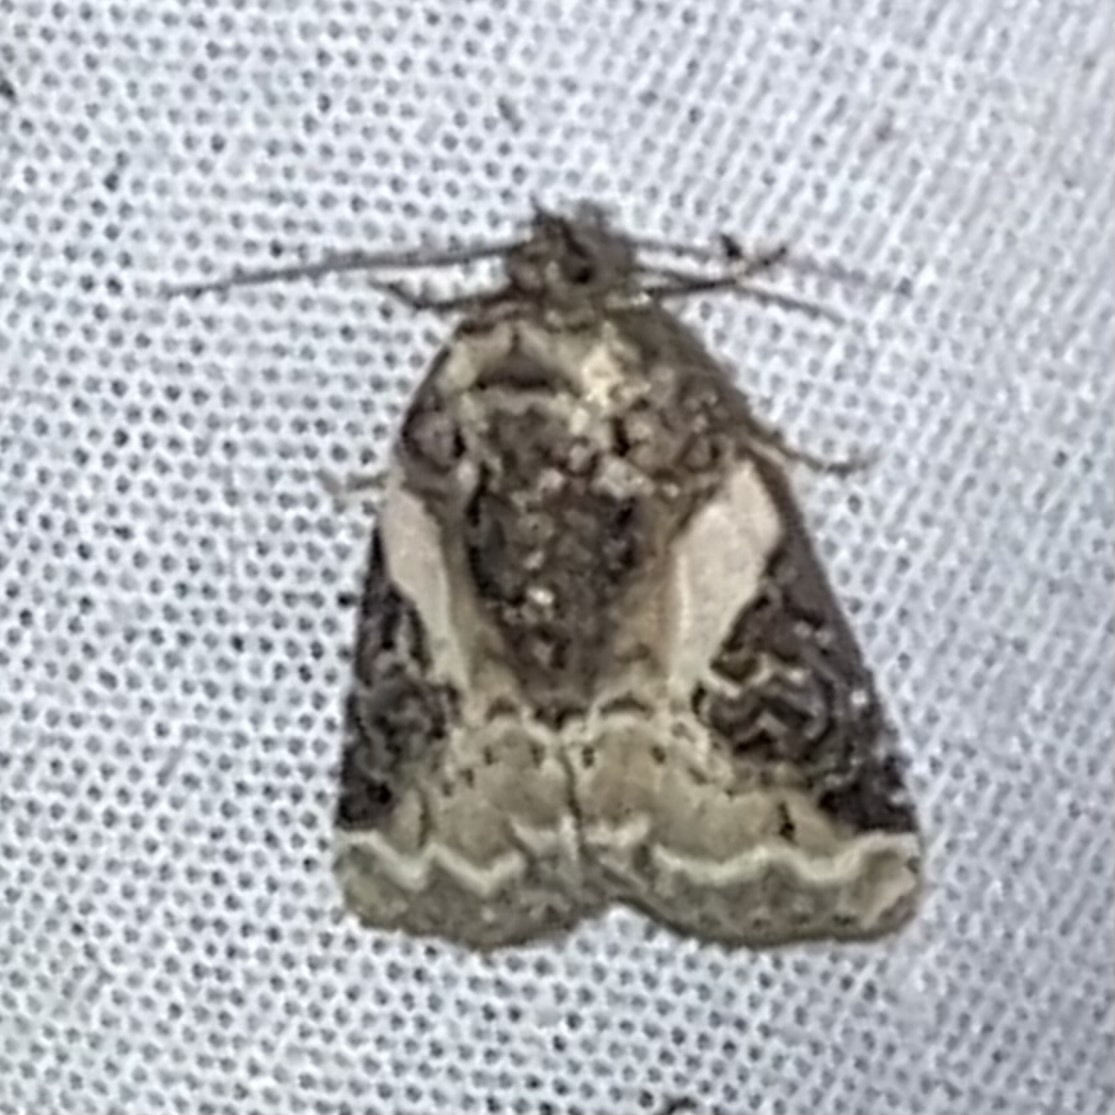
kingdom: Animalia
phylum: Arthropoda
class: Insecta
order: Lepidoptera
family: Noctuidae
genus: Pseudeustrotia
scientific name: Pseudeustrotia carneola
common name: Pink-barred lithacodia moth
